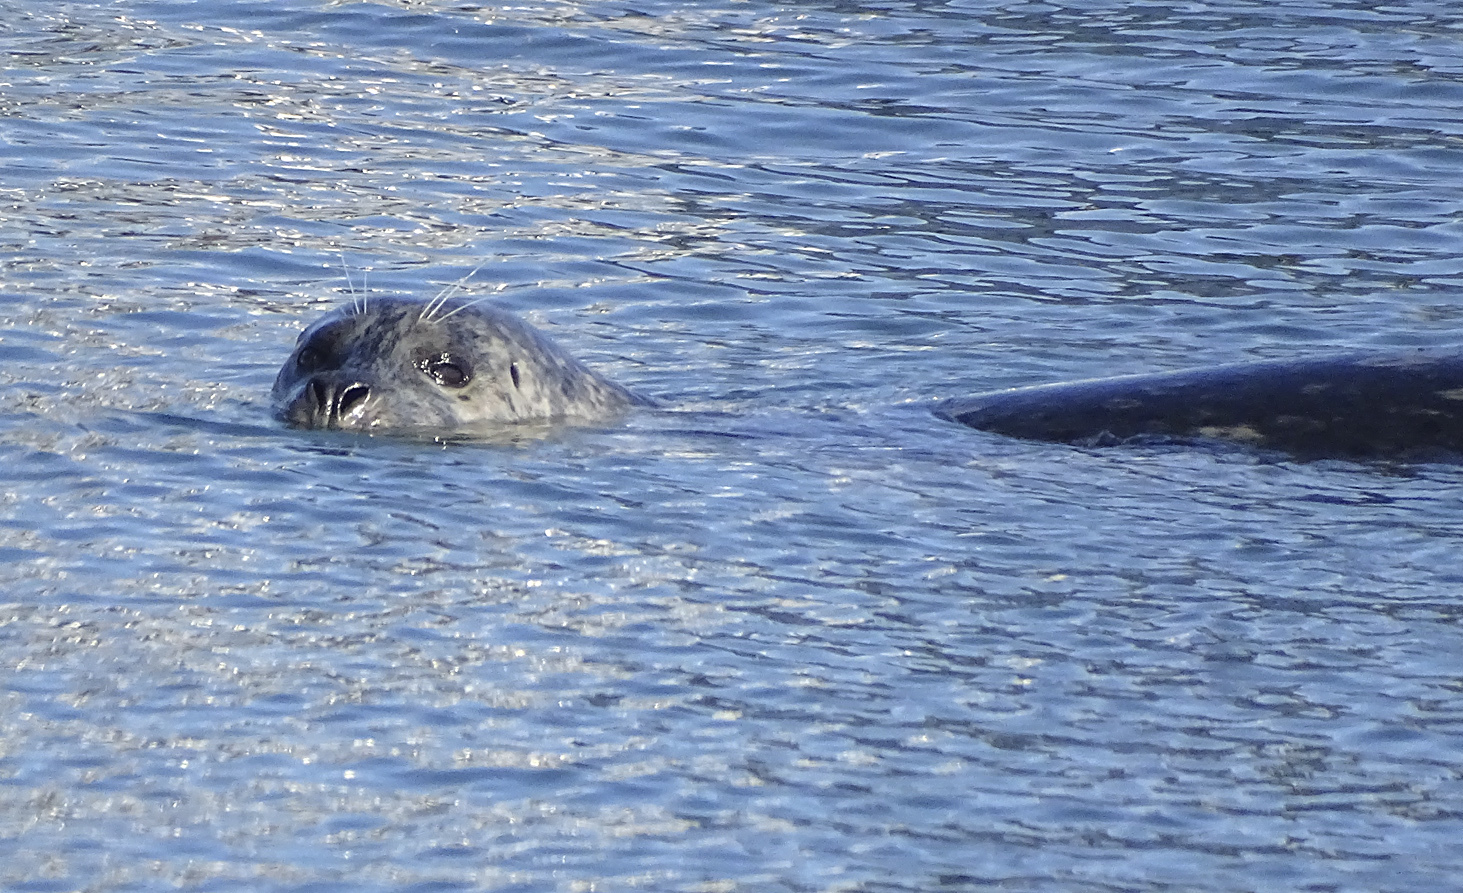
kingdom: Animalia
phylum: Chordata
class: Mammalia
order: Carnivora
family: Phocidae
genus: Phoca
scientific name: Phoca vitulina
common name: Harbor seal
